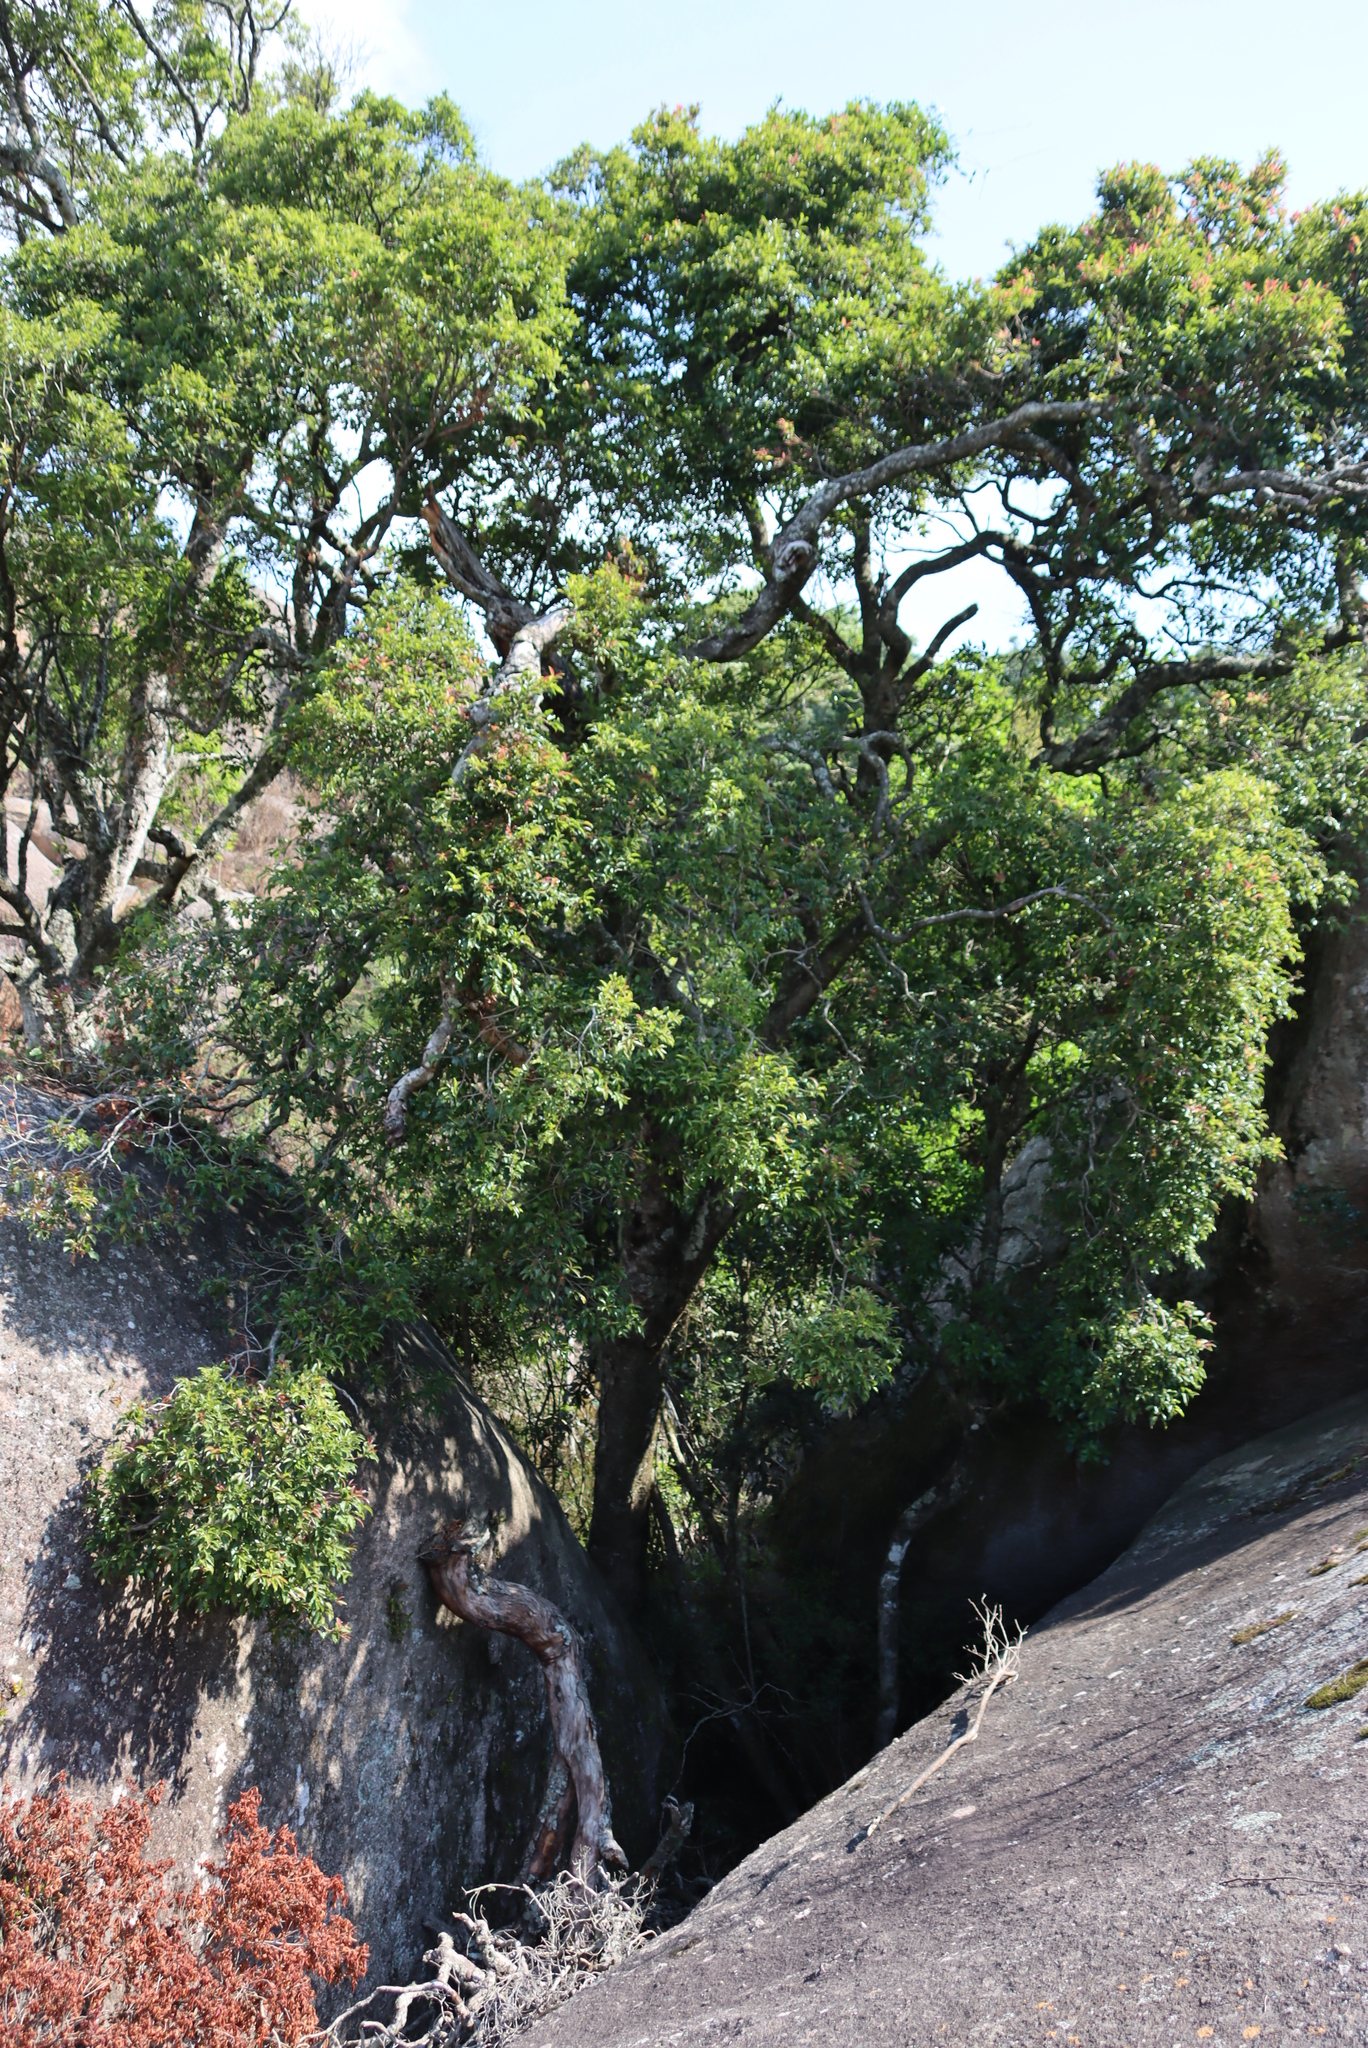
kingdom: Plantae
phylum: Tracheophyta
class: Magnoliopsida
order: Myrtales
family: Myrtaceae
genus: Syzygium
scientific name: Syzygium gerrardii
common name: Forest waterberry
